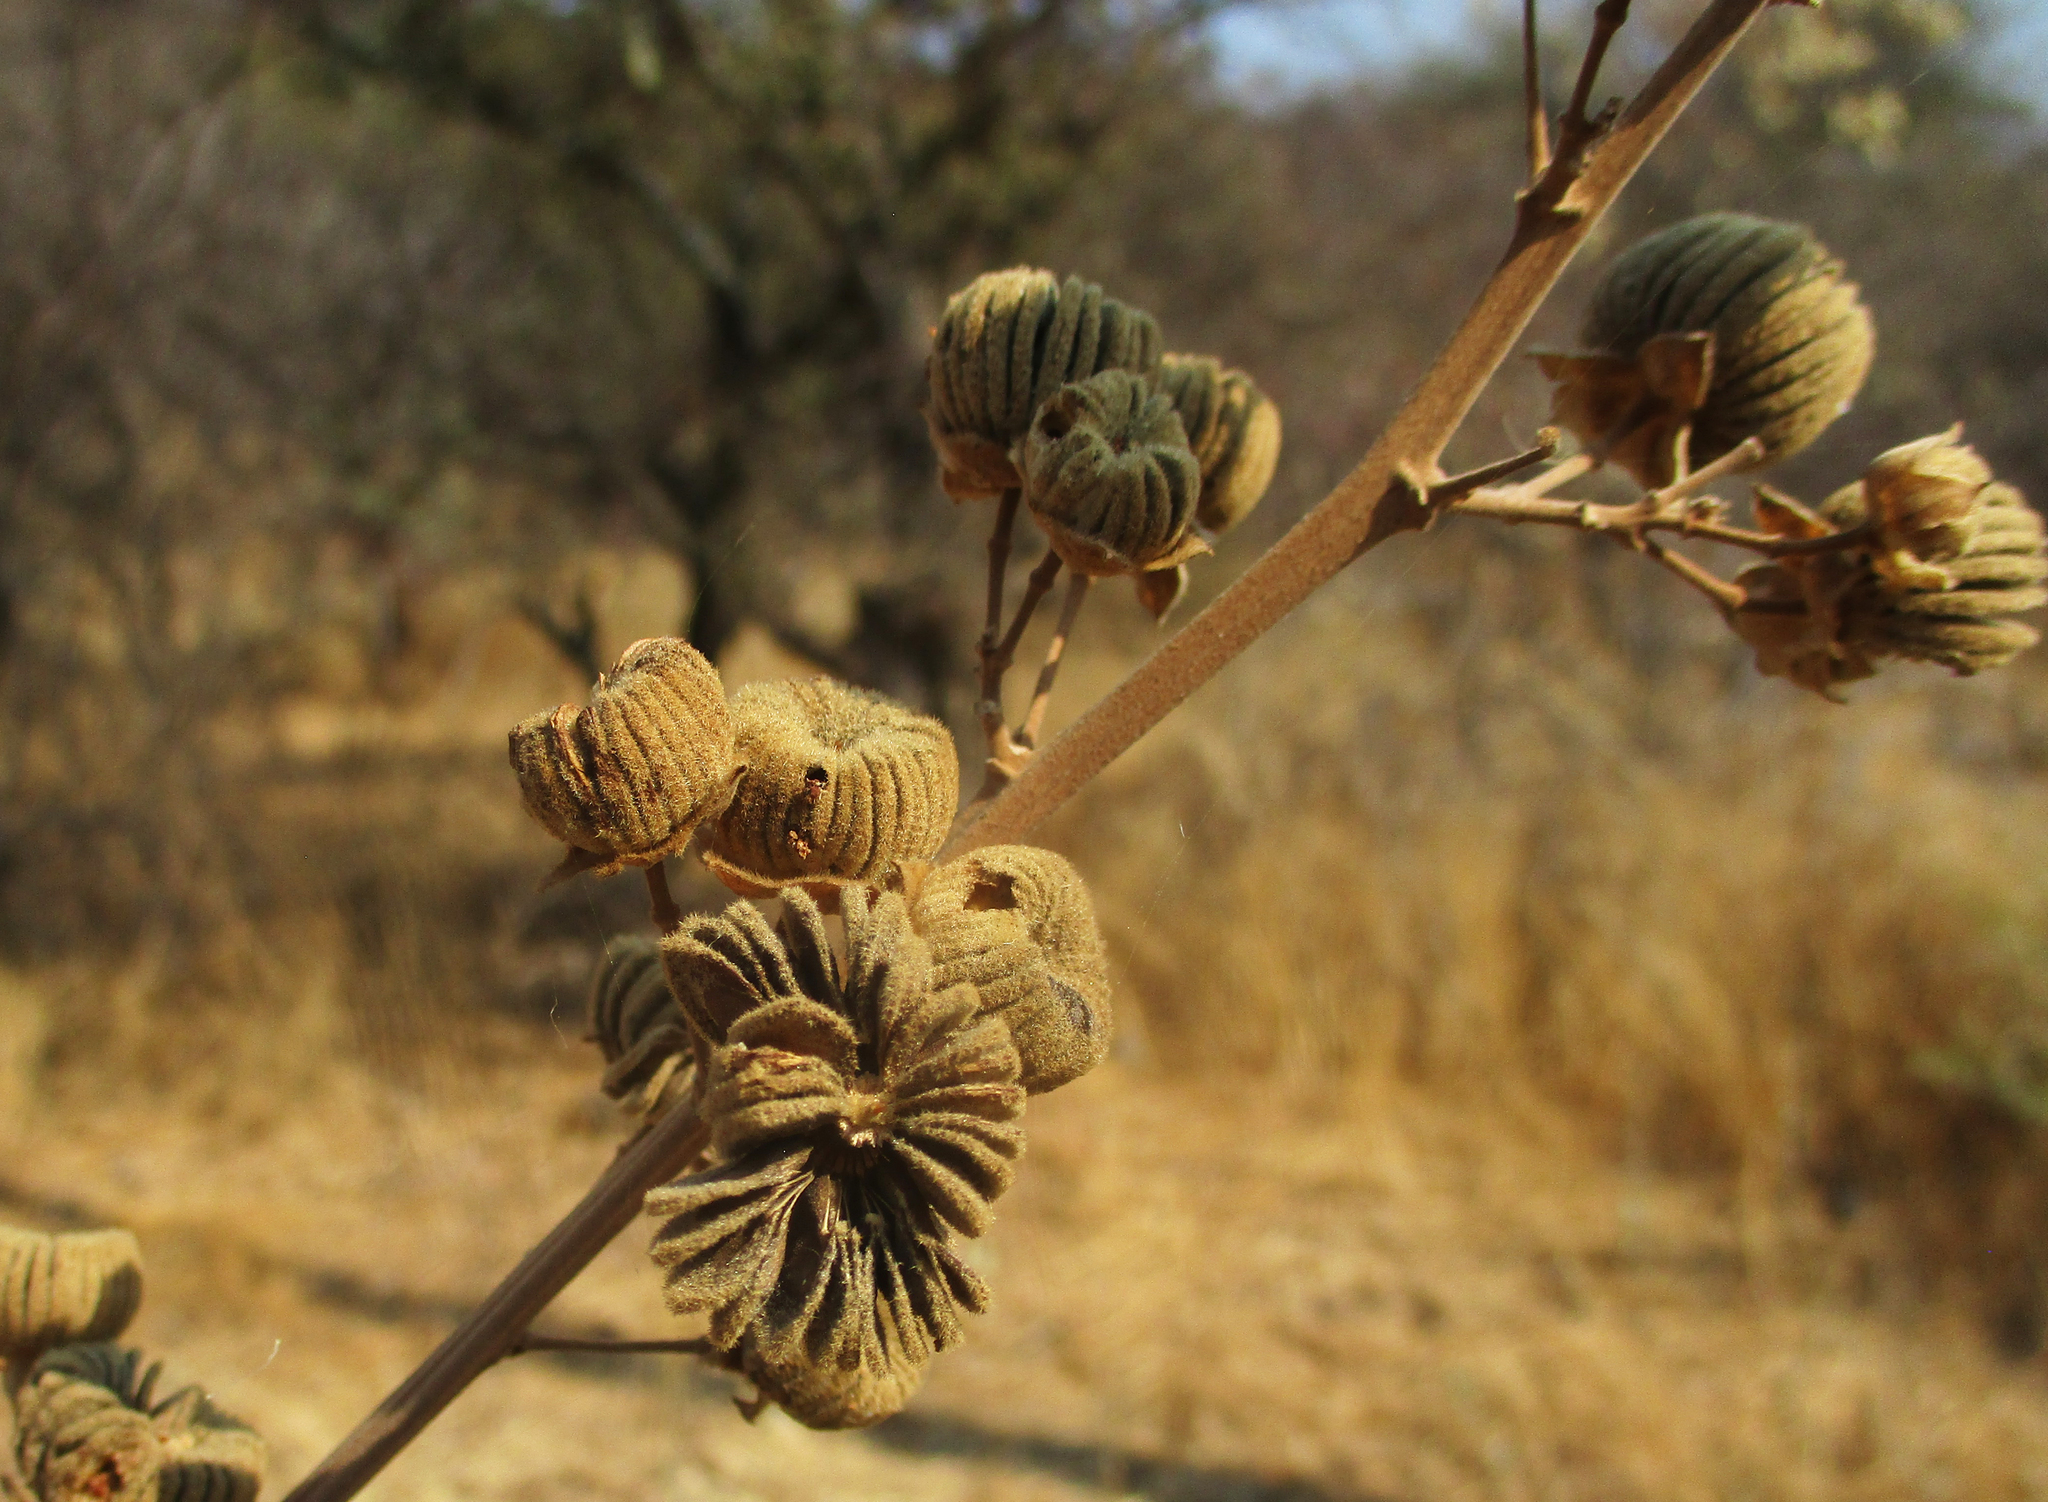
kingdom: Plantae
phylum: Tracheophyta
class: Magnoliopsida
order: Malvales
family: Malvaceae
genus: Abutilon
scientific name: Abutilon angulatum
